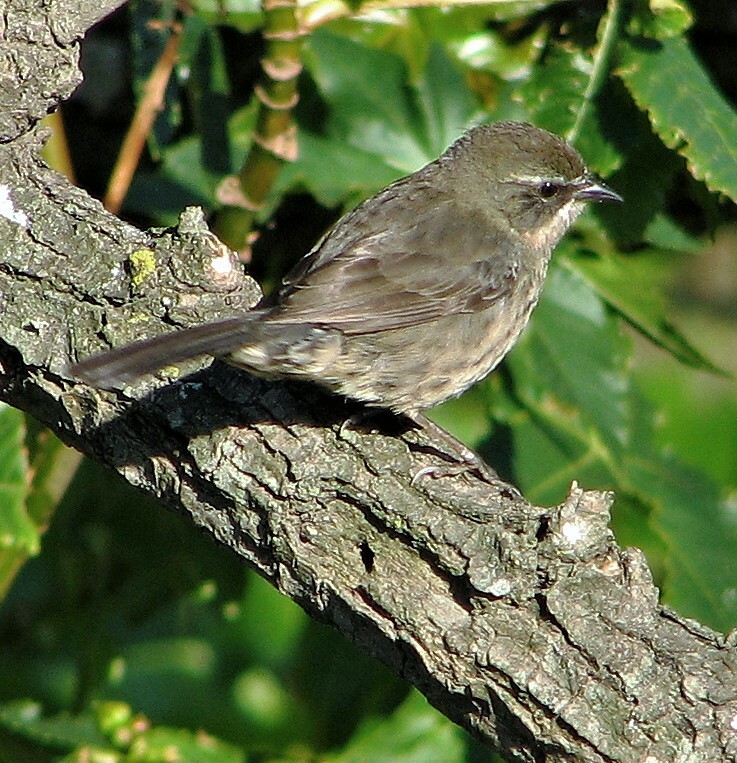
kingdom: Animalia
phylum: Chordata
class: Aves
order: Passeriformes
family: Thraupidae
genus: Poospiza
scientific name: Poospiza nigrorufa
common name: Black-and-rufous warbling finch
